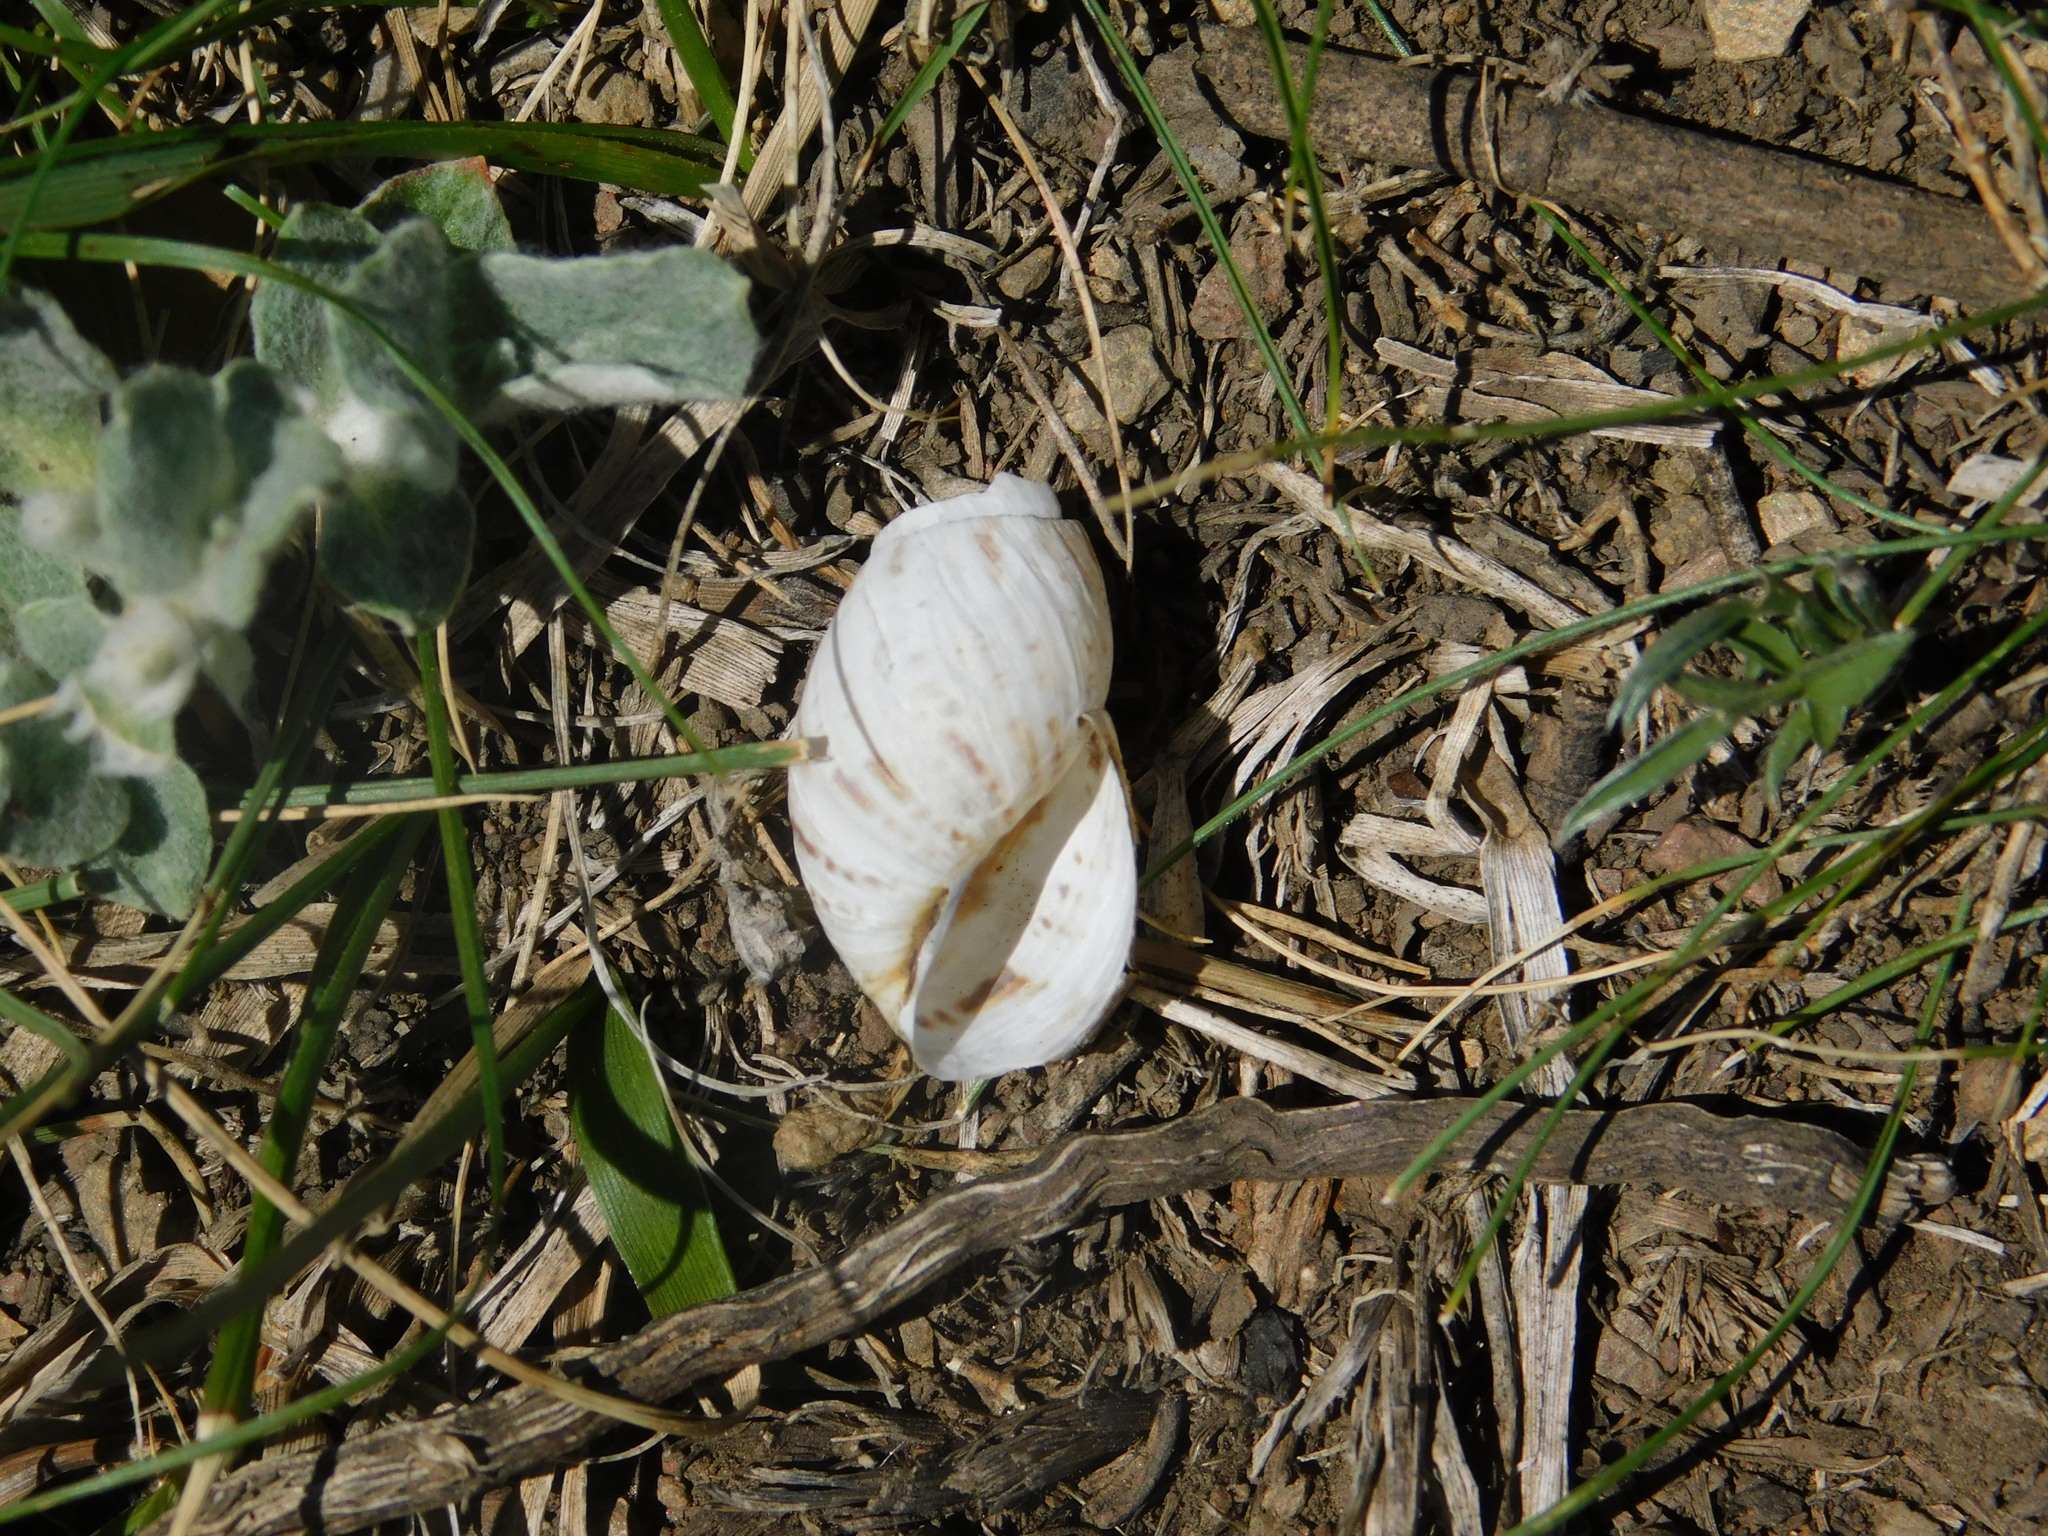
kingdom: Animalia
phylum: Mollusca
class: Gastropoda
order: Stylommatophora
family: Bothriembryontidae
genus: Discoleus
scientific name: Discoleus aguirrei
